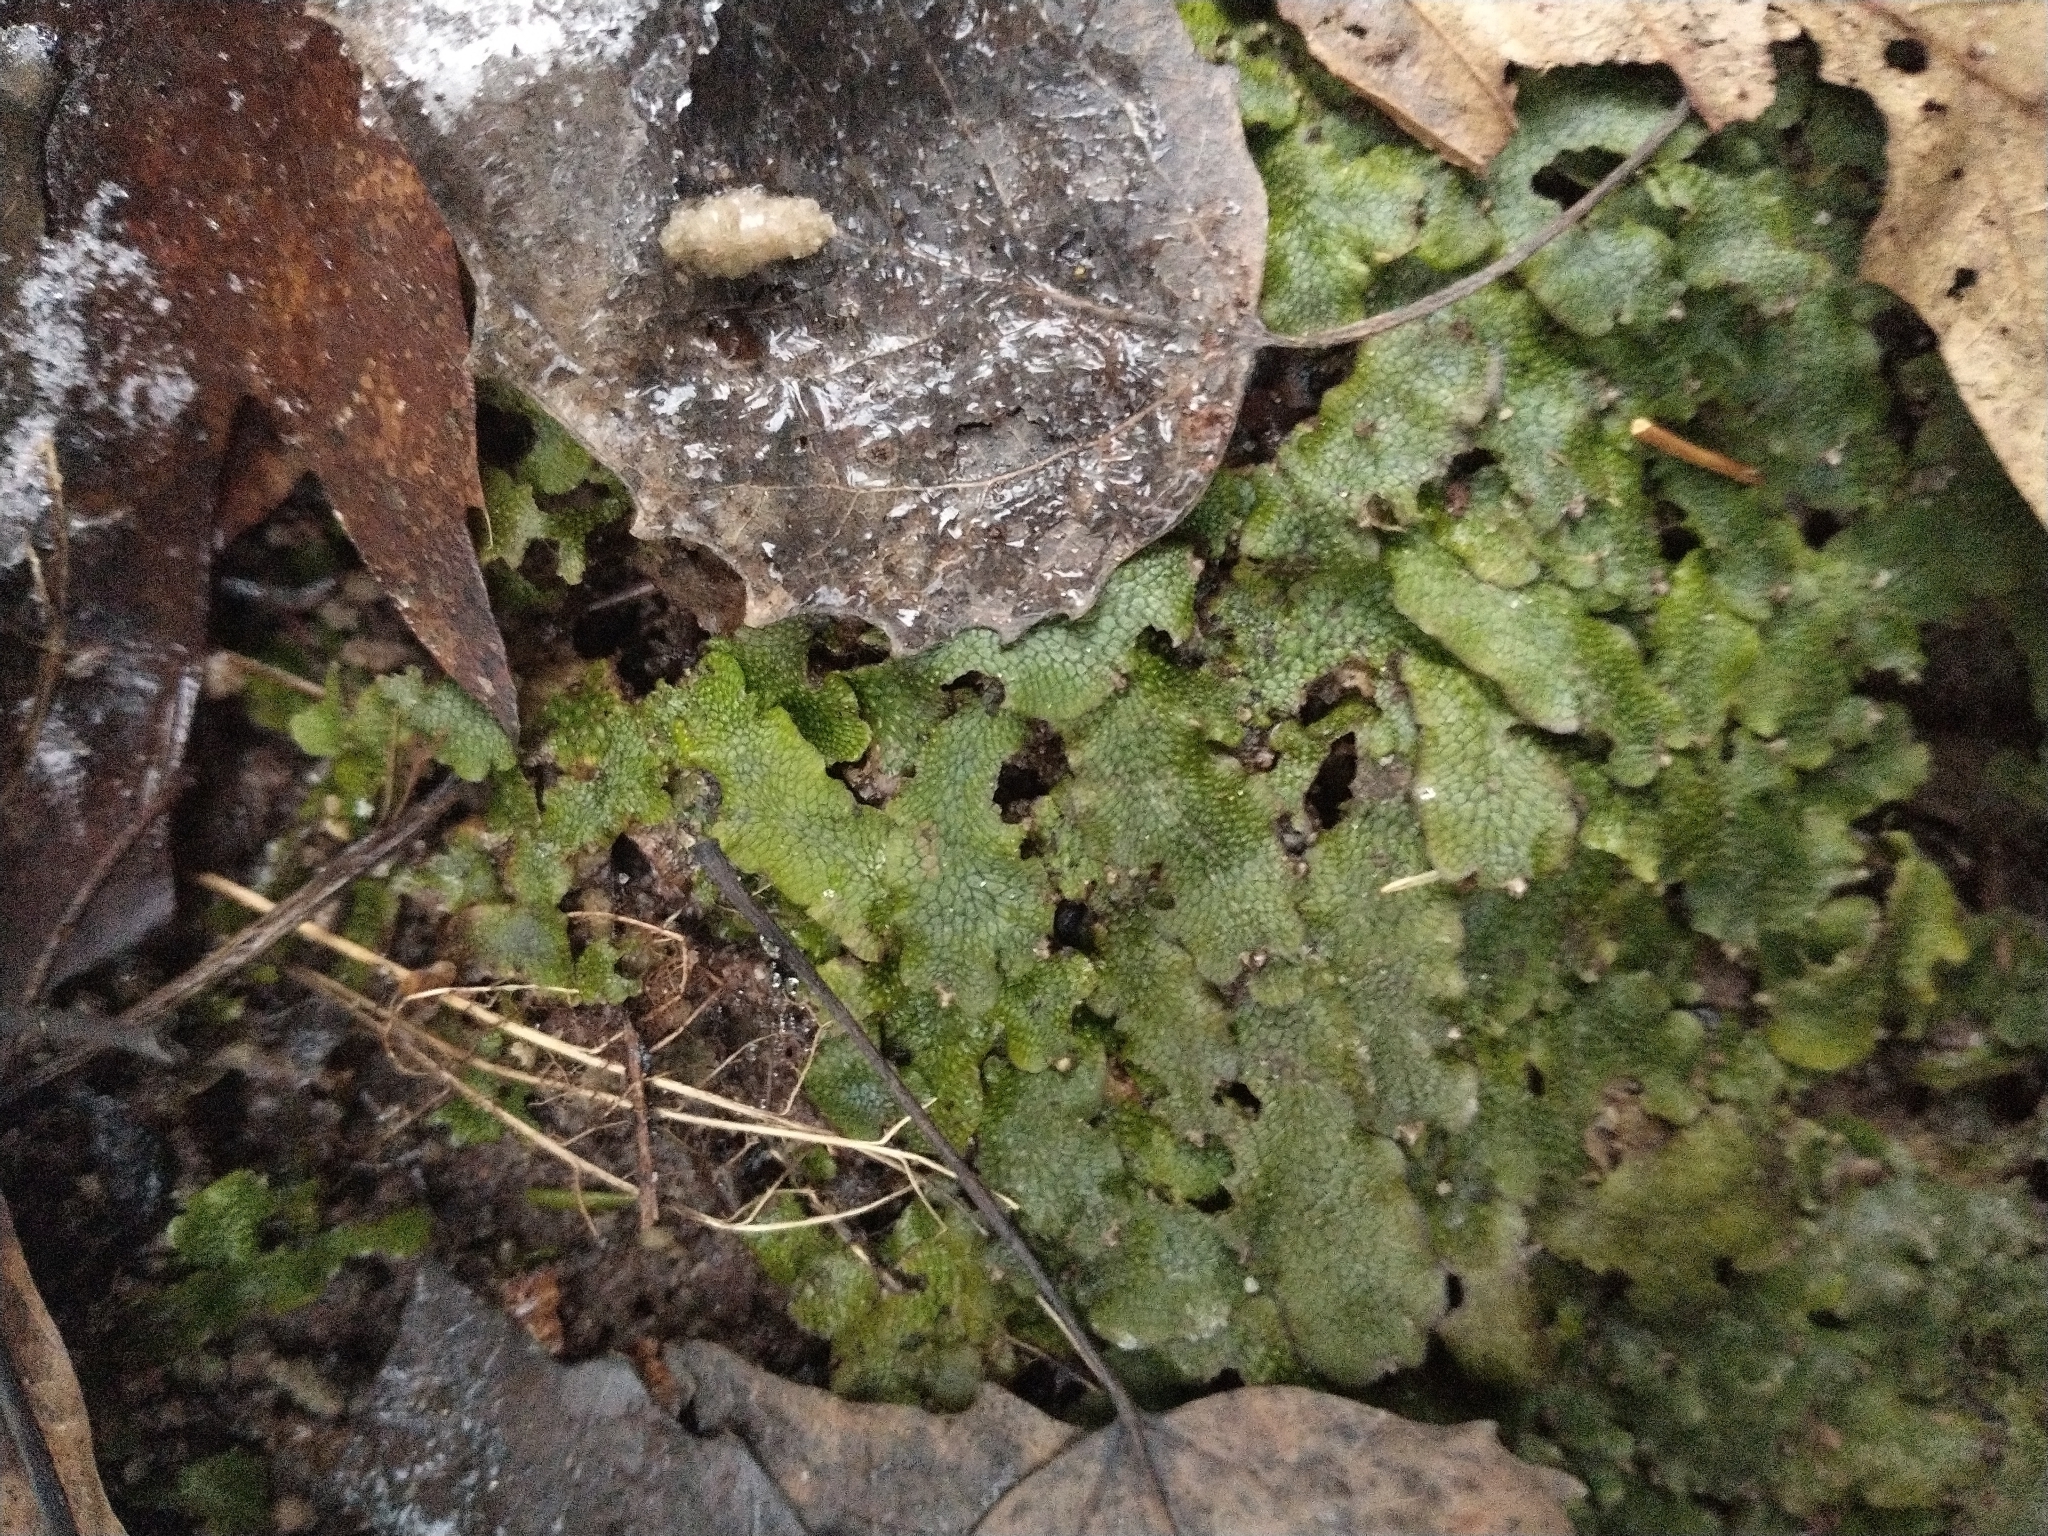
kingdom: Plantae
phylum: Marchantiophyta
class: Marchantiopsida
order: Marchantiales
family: Conocephalaceae
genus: Conocephalum
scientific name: Conocephalum salebrosum
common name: Cat-tongue liverwort
